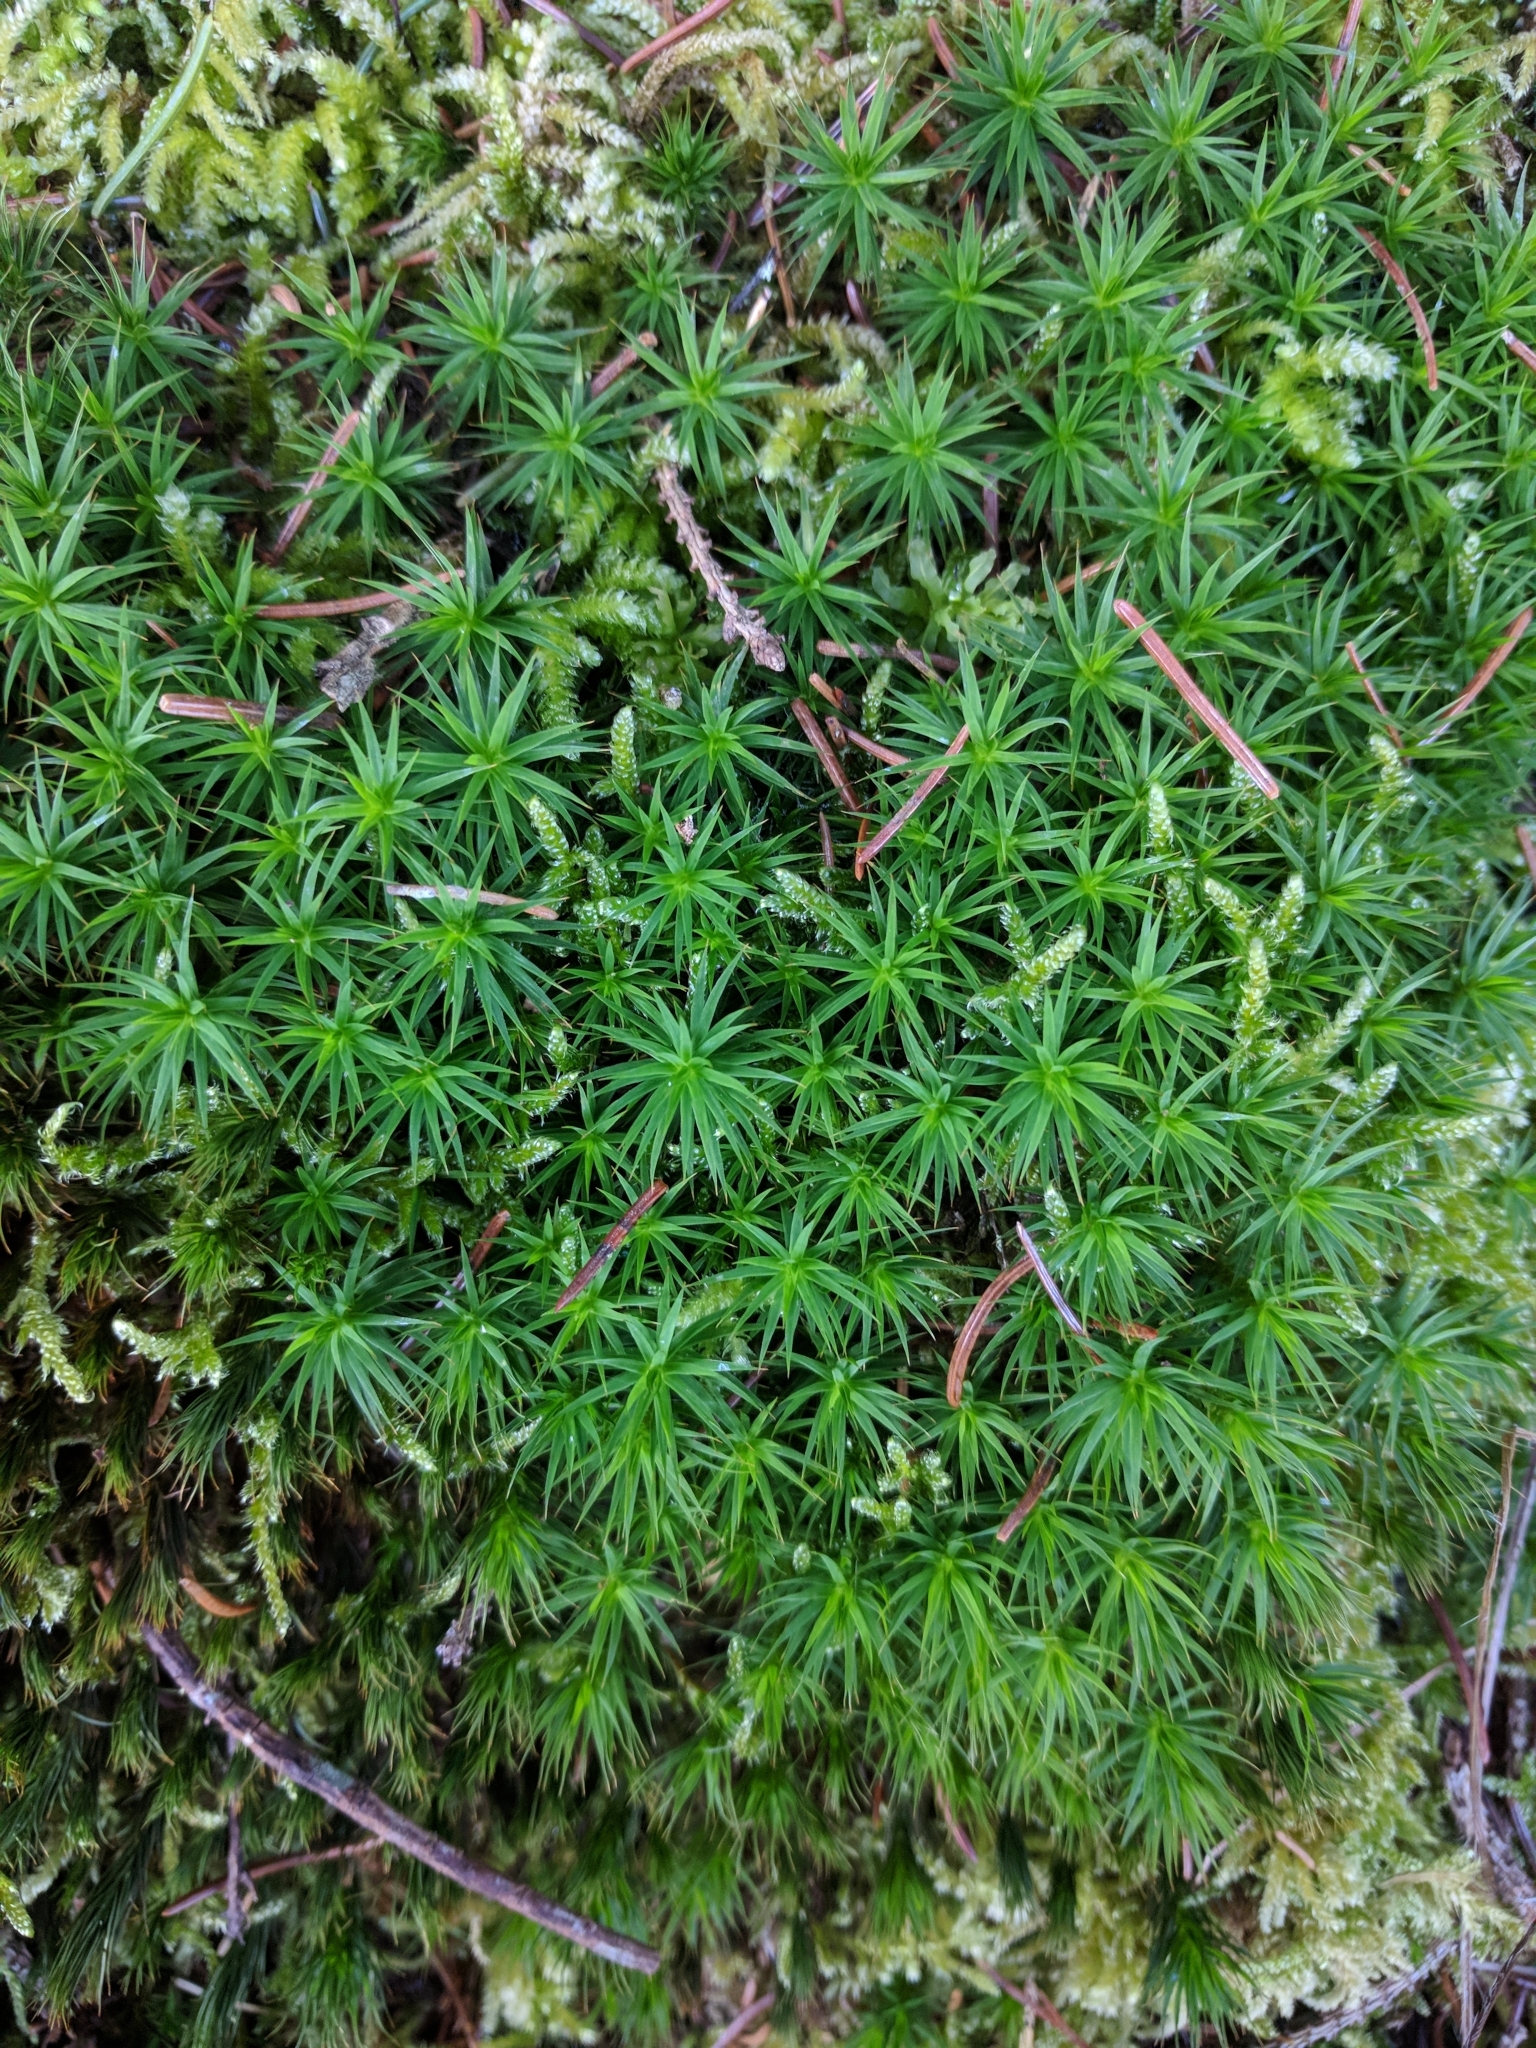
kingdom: Plantae
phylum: Bryophyta
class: Polytrichopsida
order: Polytrichales
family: Polytrichaceae
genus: Polytrichum
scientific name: Polytrichum formosum
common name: Bank haircap moss
